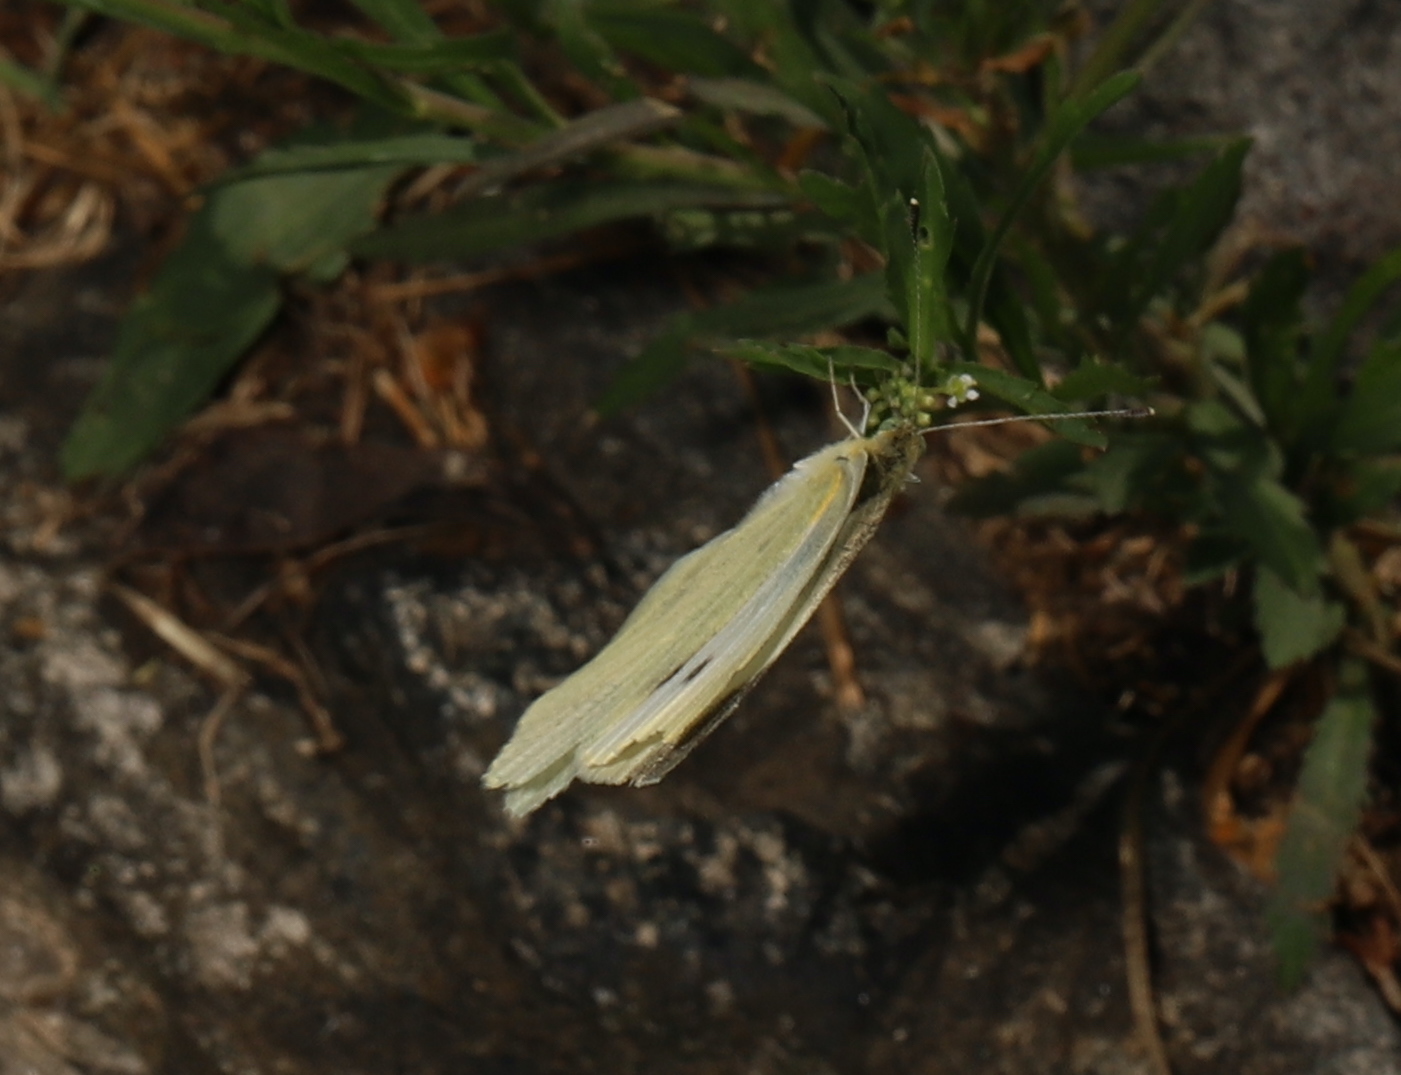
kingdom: Animalia
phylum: Arthropoda
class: Insecta
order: Lepidoptera
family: Pieridae
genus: Pieris
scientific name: Pieris rapae
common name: Small white
